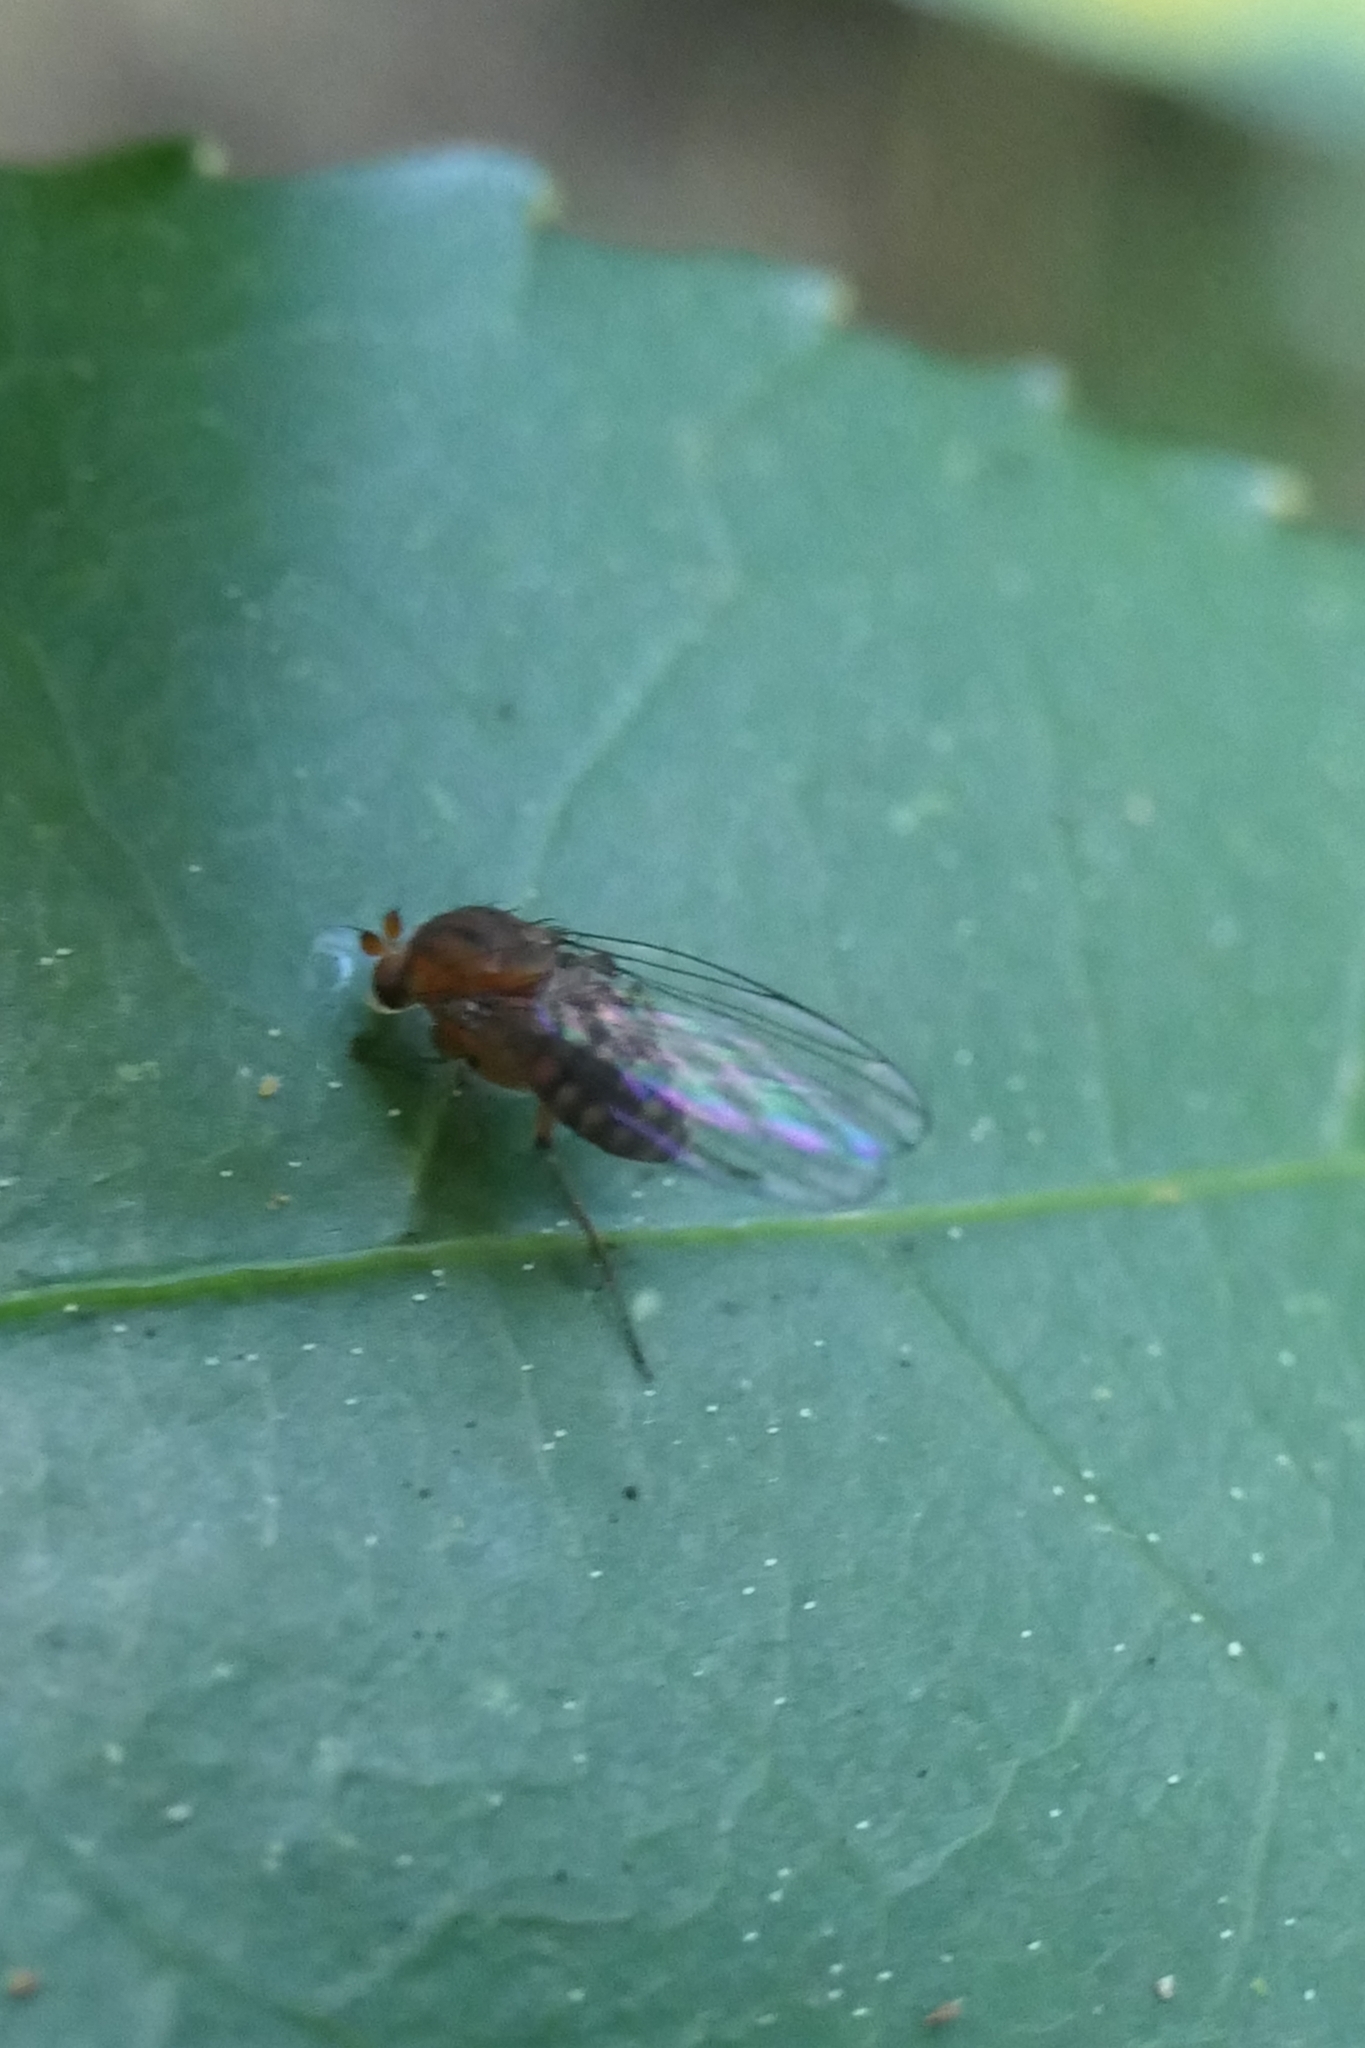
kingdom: Animalia
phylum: Arthropoda
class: Insecta
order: Diptera
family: Phoridae
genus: Sciadocera
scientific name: Sciadocera rufomaculata
